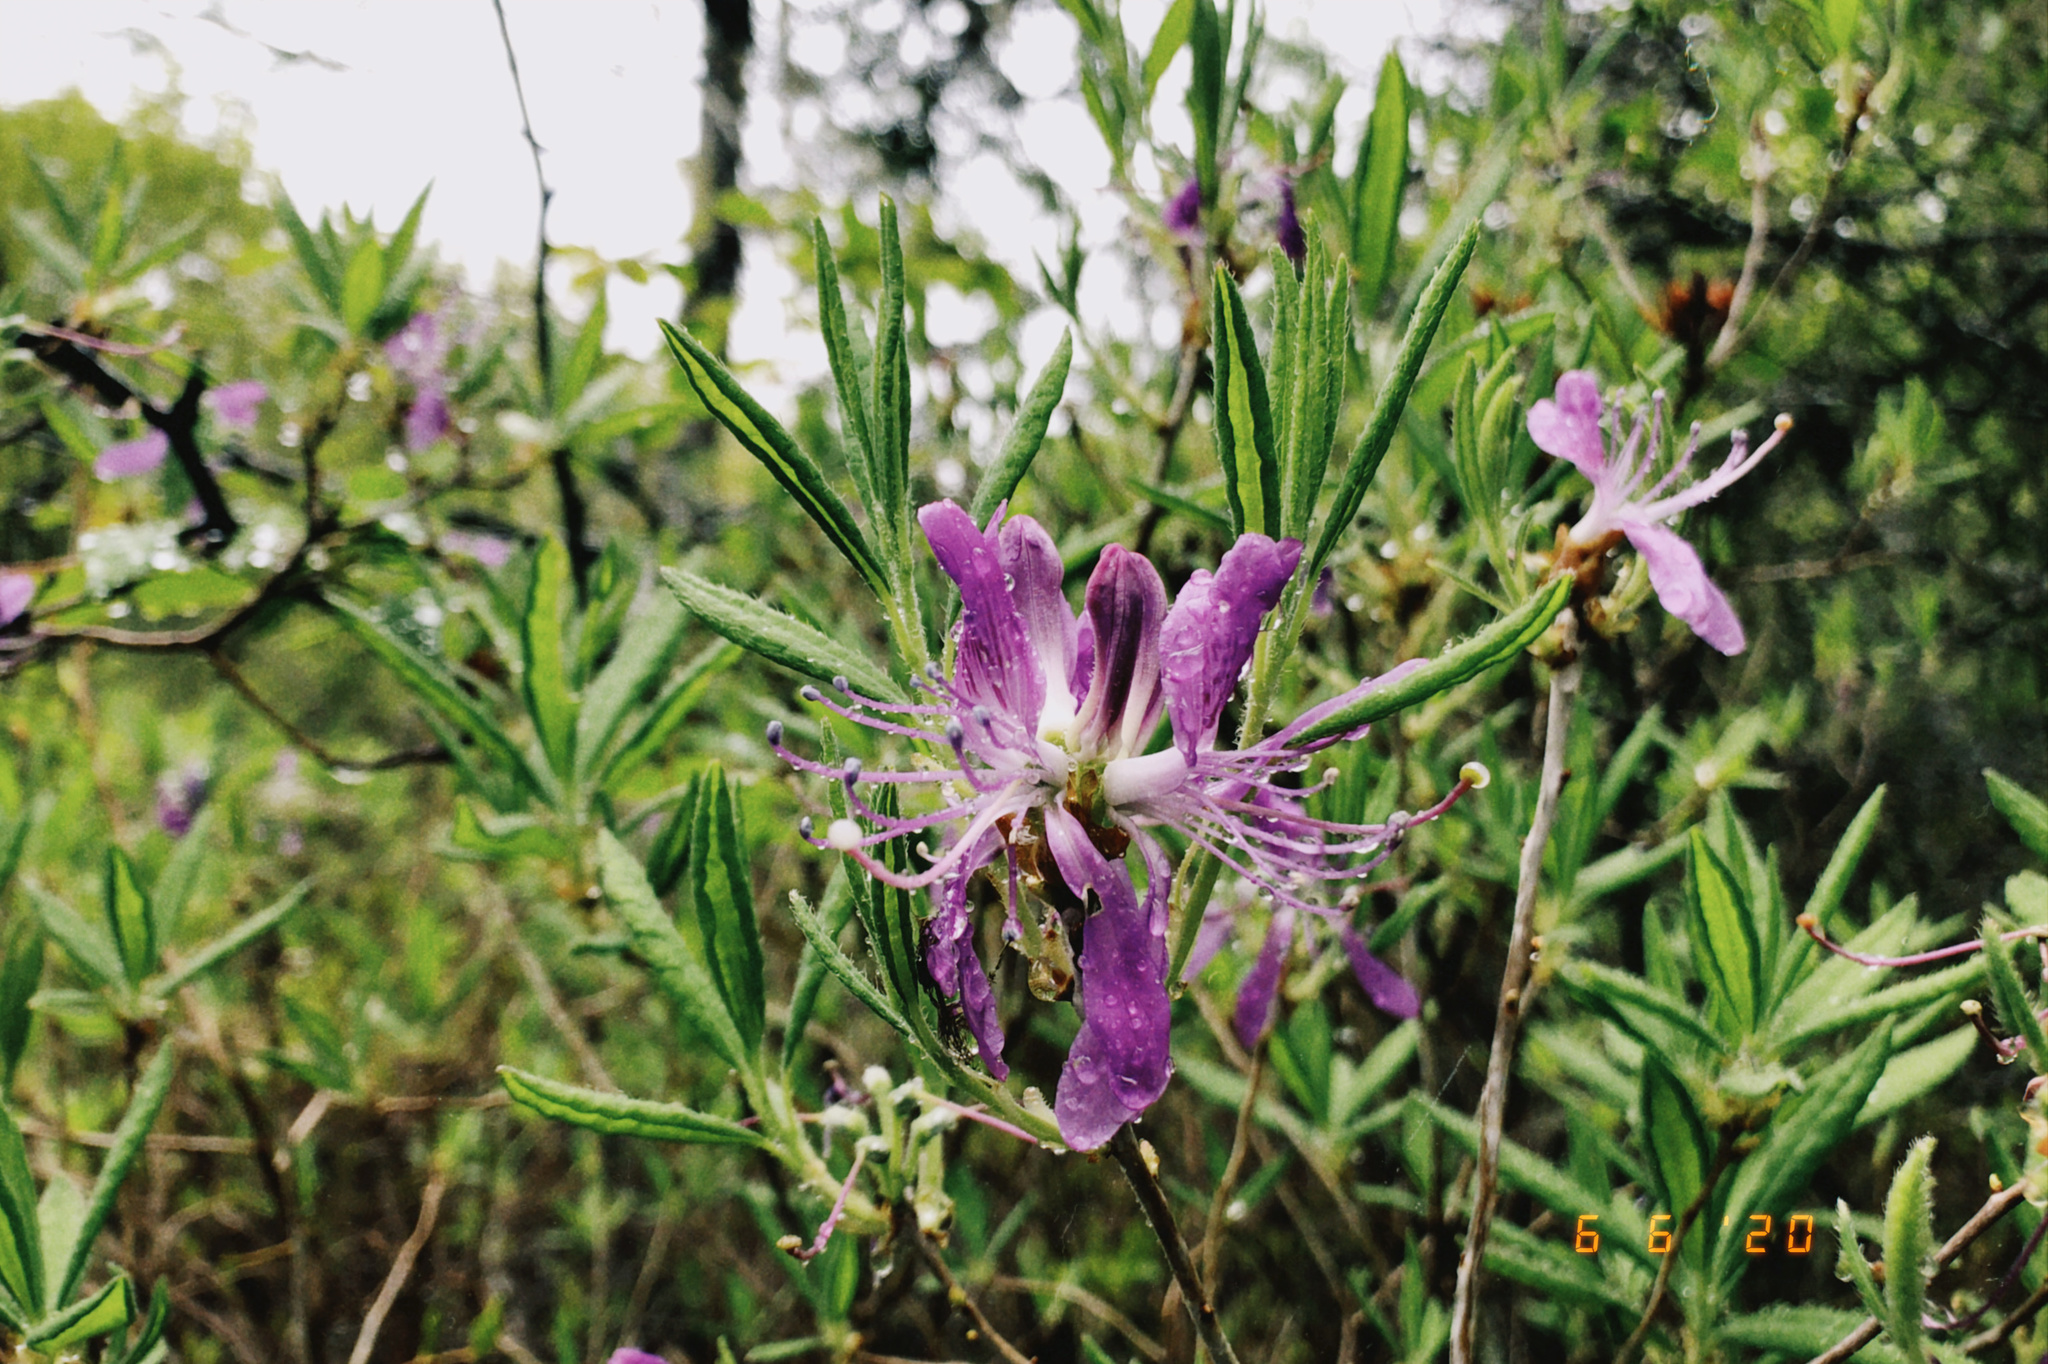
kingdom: Plantae
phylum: Tracheophyta
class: Magnoliopsida
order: Ericales
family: Ericaceae
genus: Rhododendron
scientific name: Rhododendron canadense
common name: Rhodora
